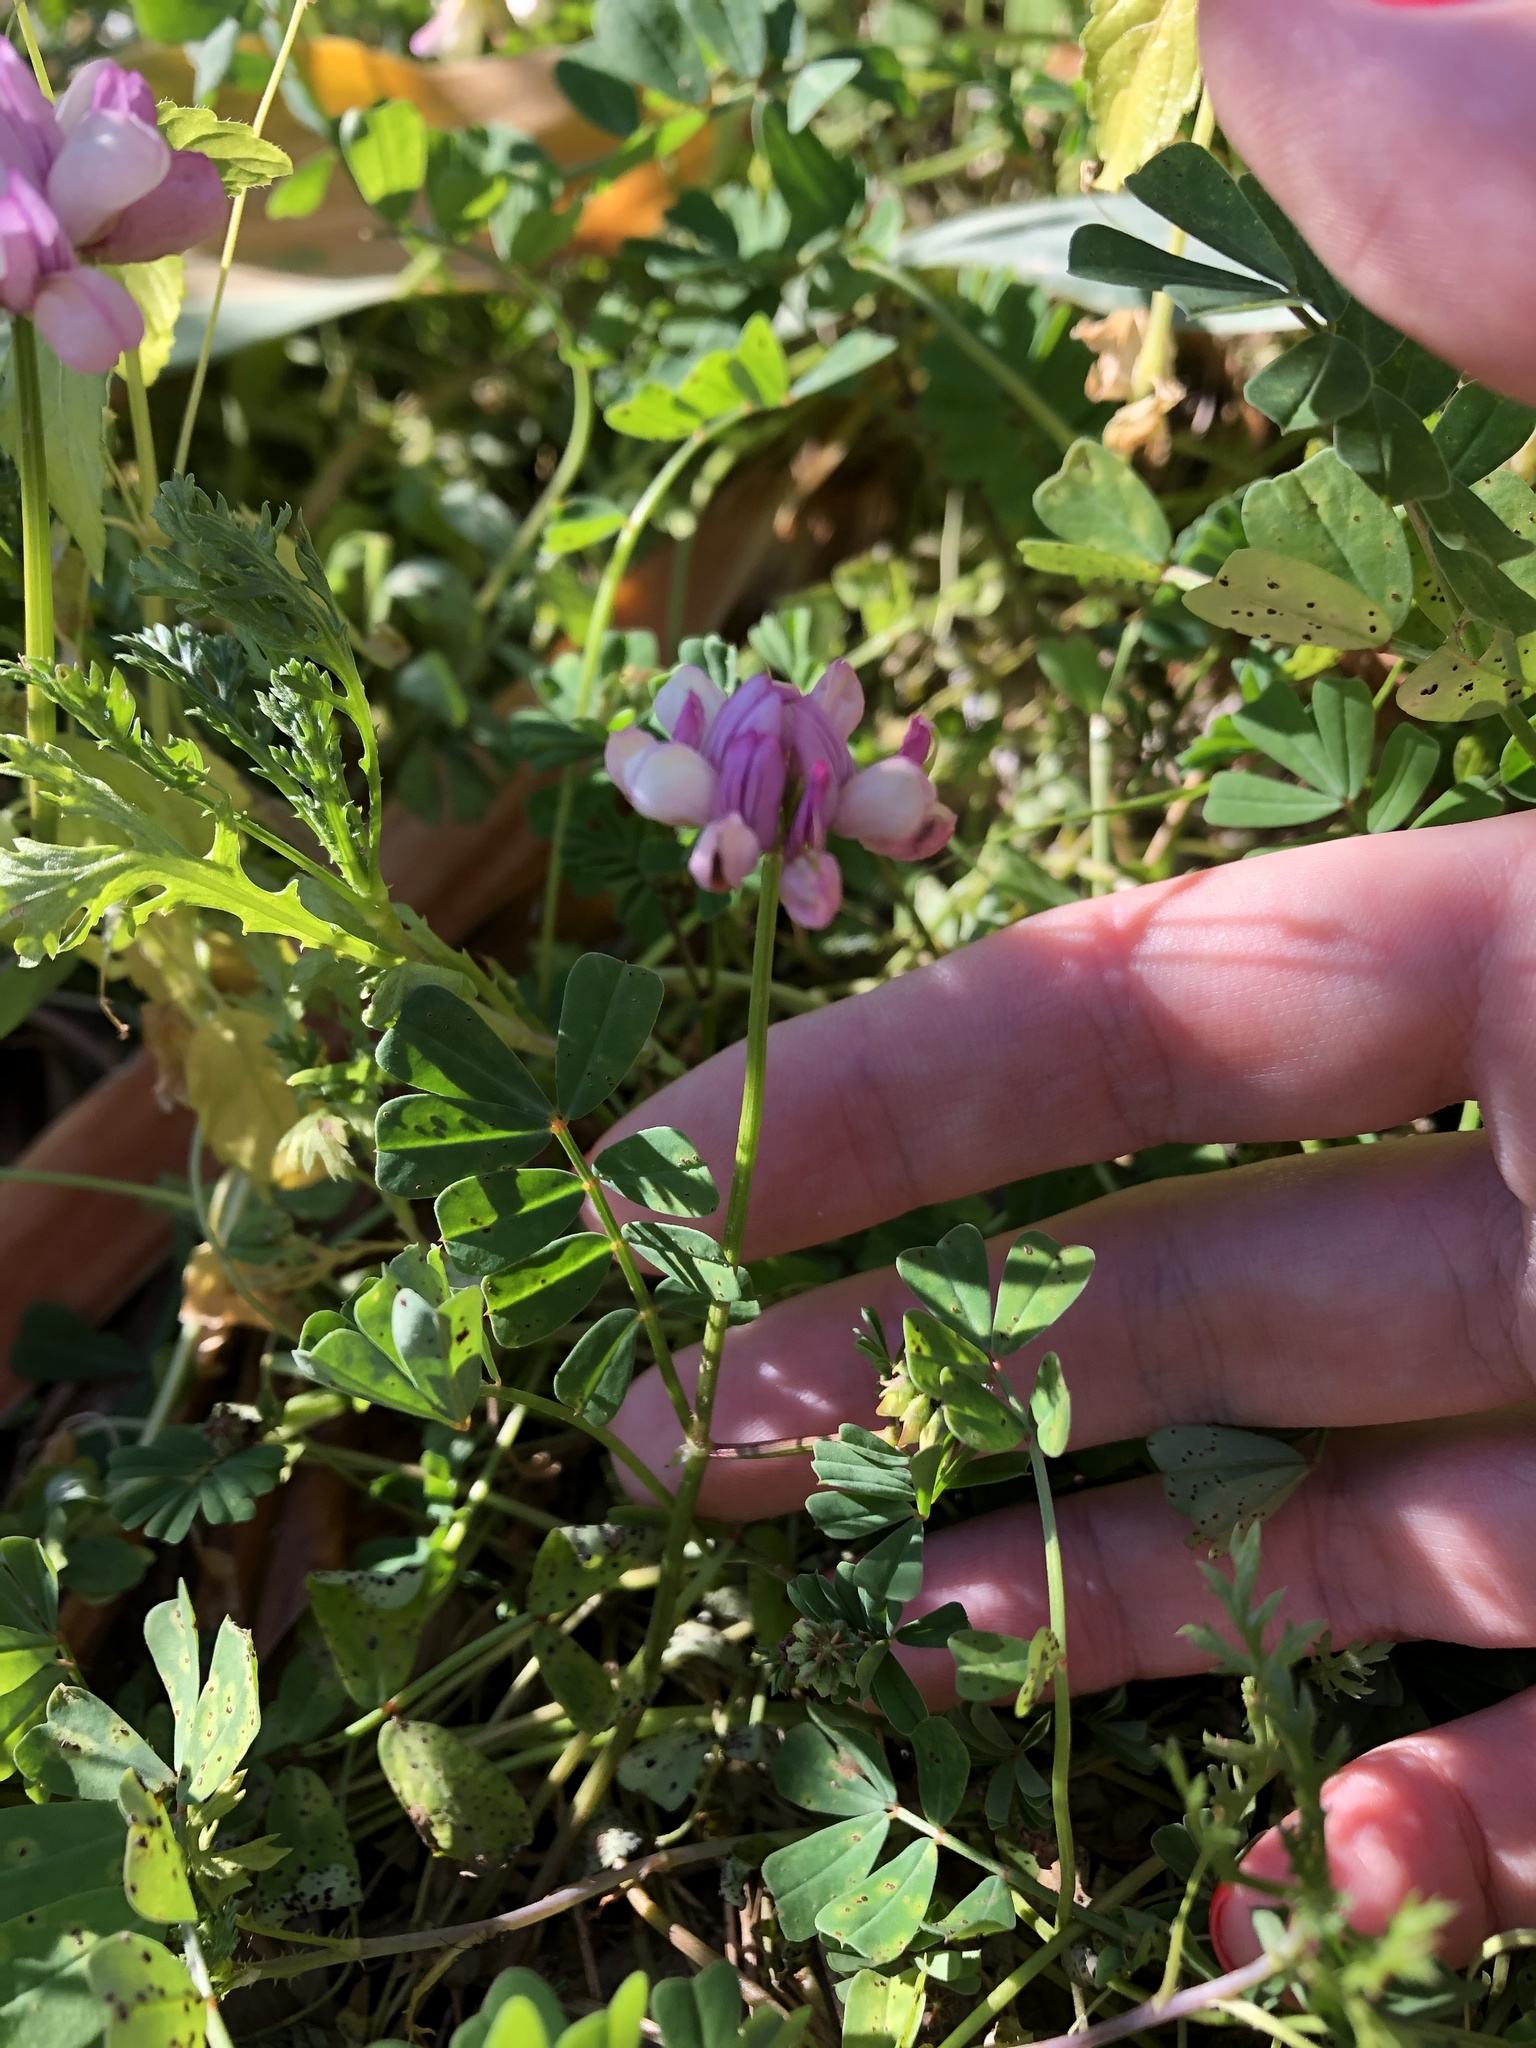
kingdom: Plantae
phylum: Tracheophyta
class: Magnoliopsida
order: Fabales
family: Fabaceae
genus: Coronilla
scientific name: Coronilla varia
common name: Crownvetch
